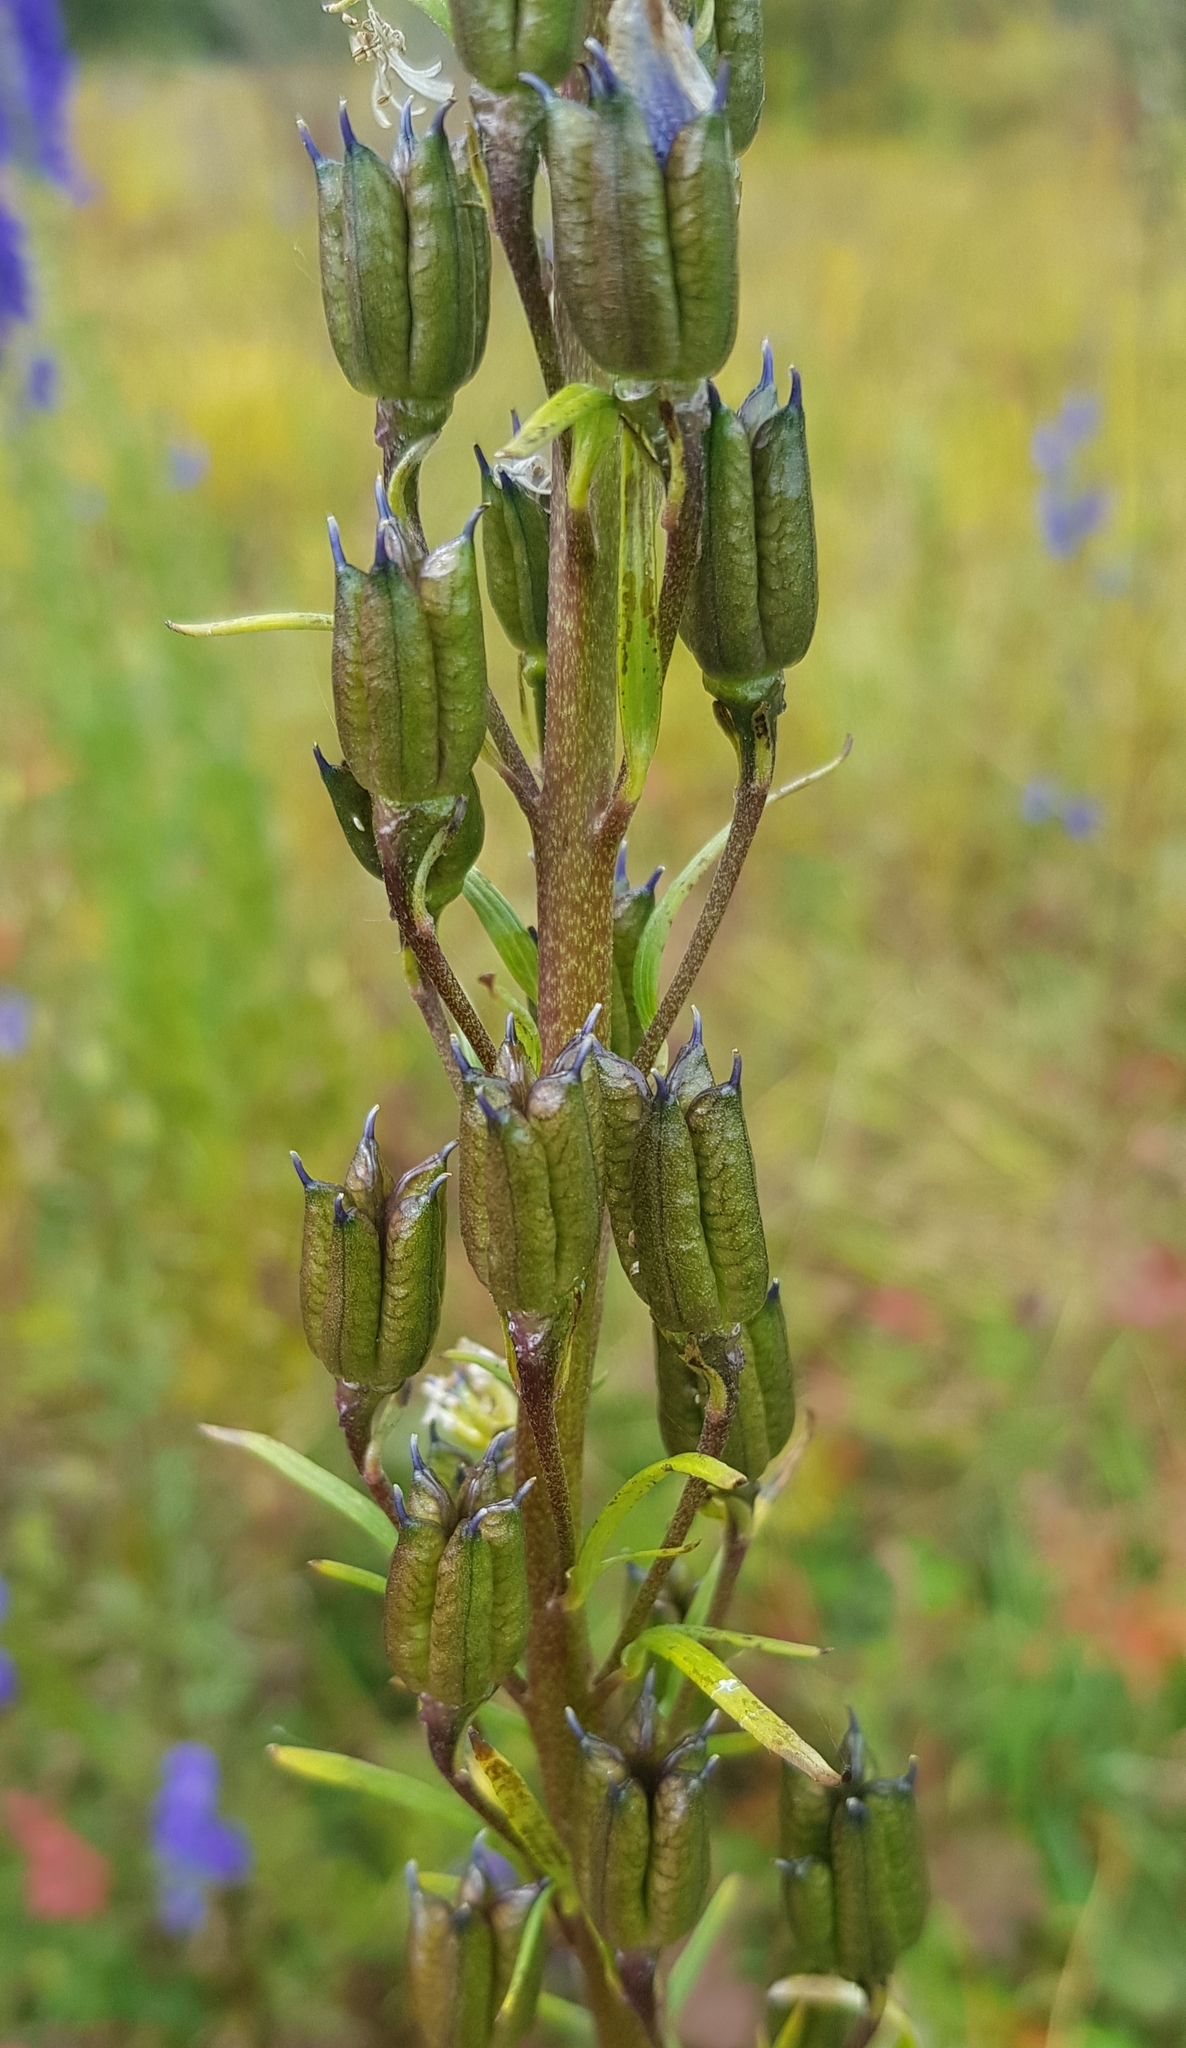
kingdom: Plantae
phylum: Tracheophyta
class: Magnoliopsida
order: Ranunculales
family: Ranunculaceae
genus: Aconitum
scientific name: Aconitum baicalense
